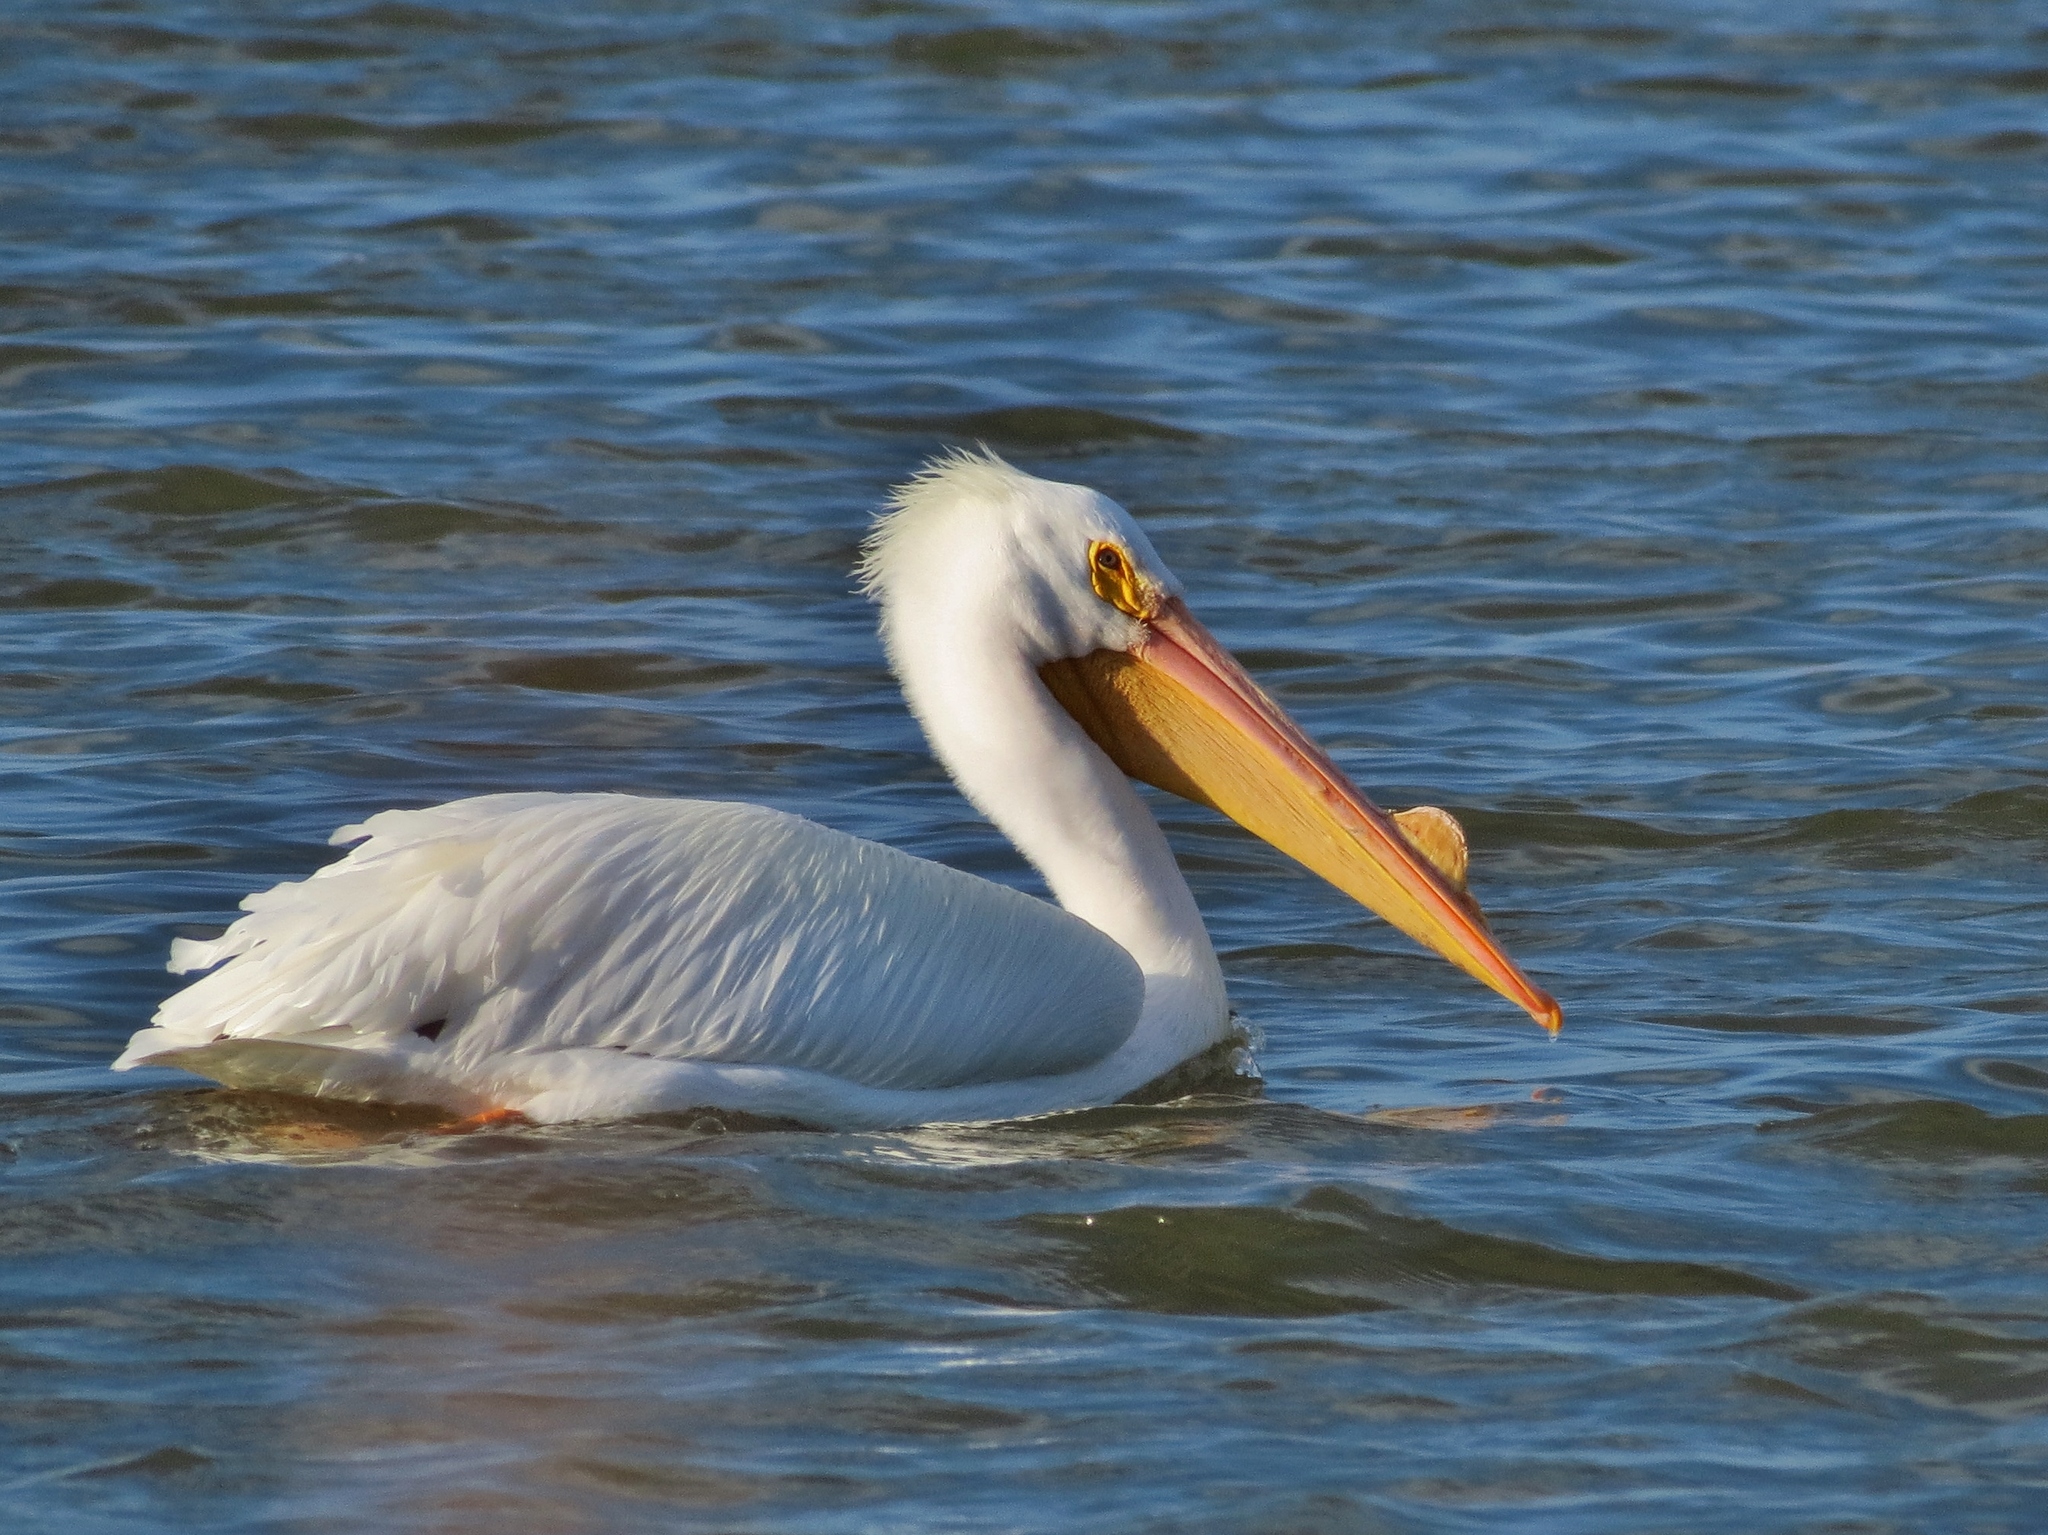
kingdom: Animalia
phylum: Chordata
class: Aves
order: Pelecaniformes
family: Pelecanidae
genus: Pelecanus
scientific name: Pelecanus erythrorhynchos
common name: American white pelican
